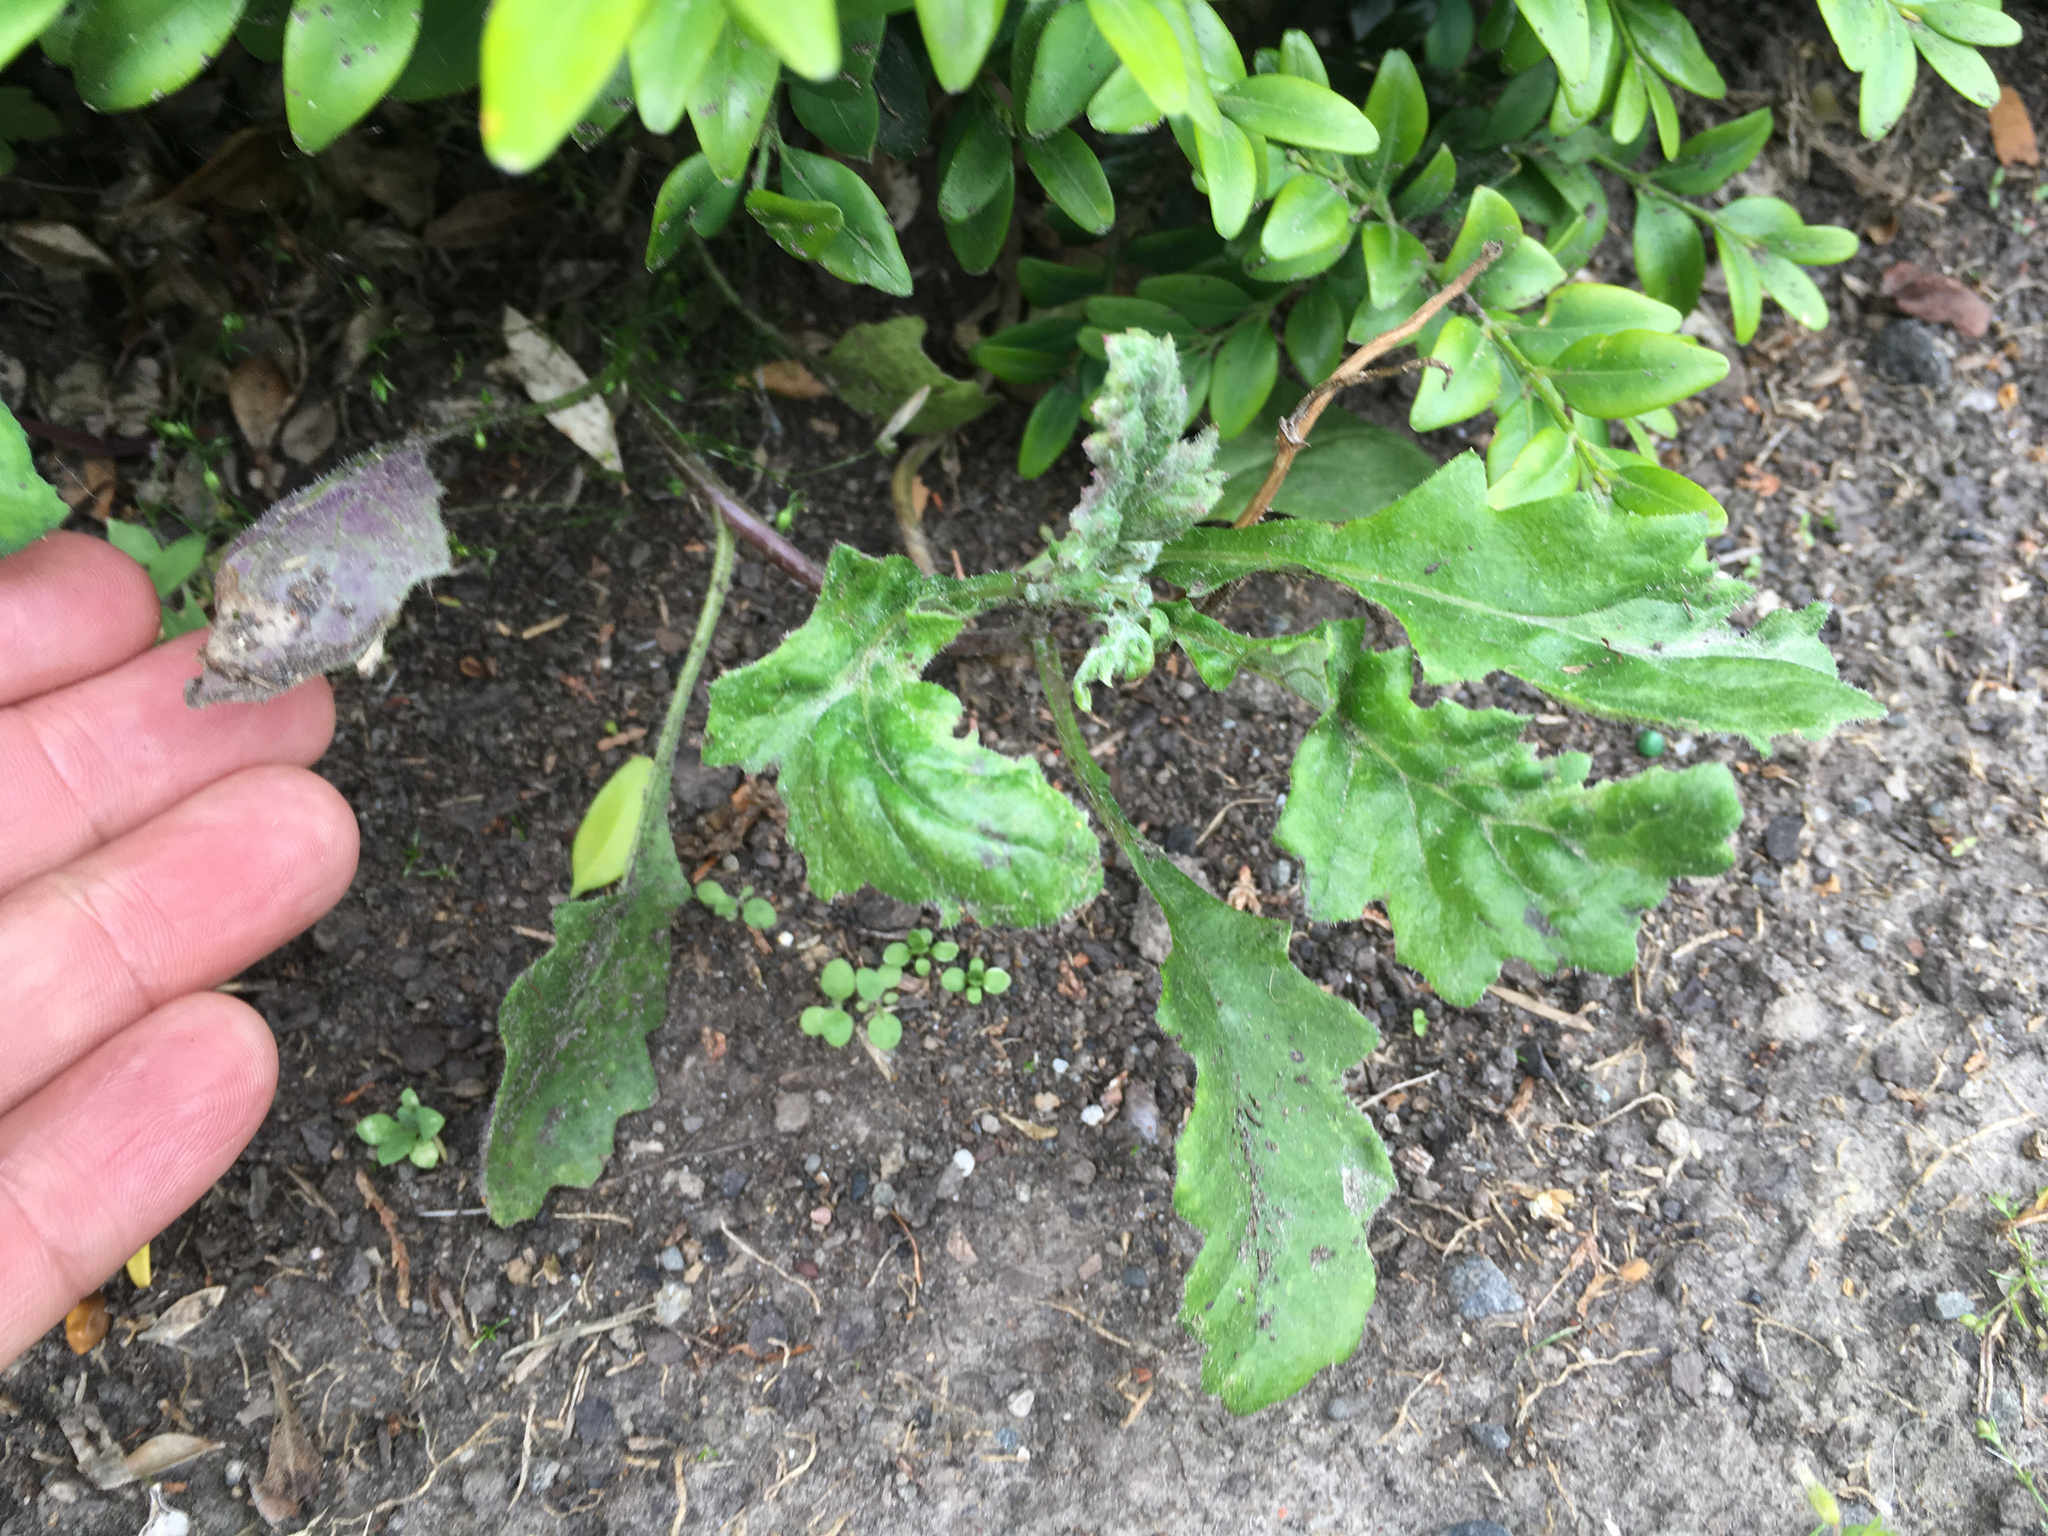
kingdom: Plantae
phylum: Tracheophyta
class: Magnoliopsida
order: Asterales
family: Asteraceae
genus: Senecio
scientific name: Senecio glomeratus
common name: Cutleaf burnweed
